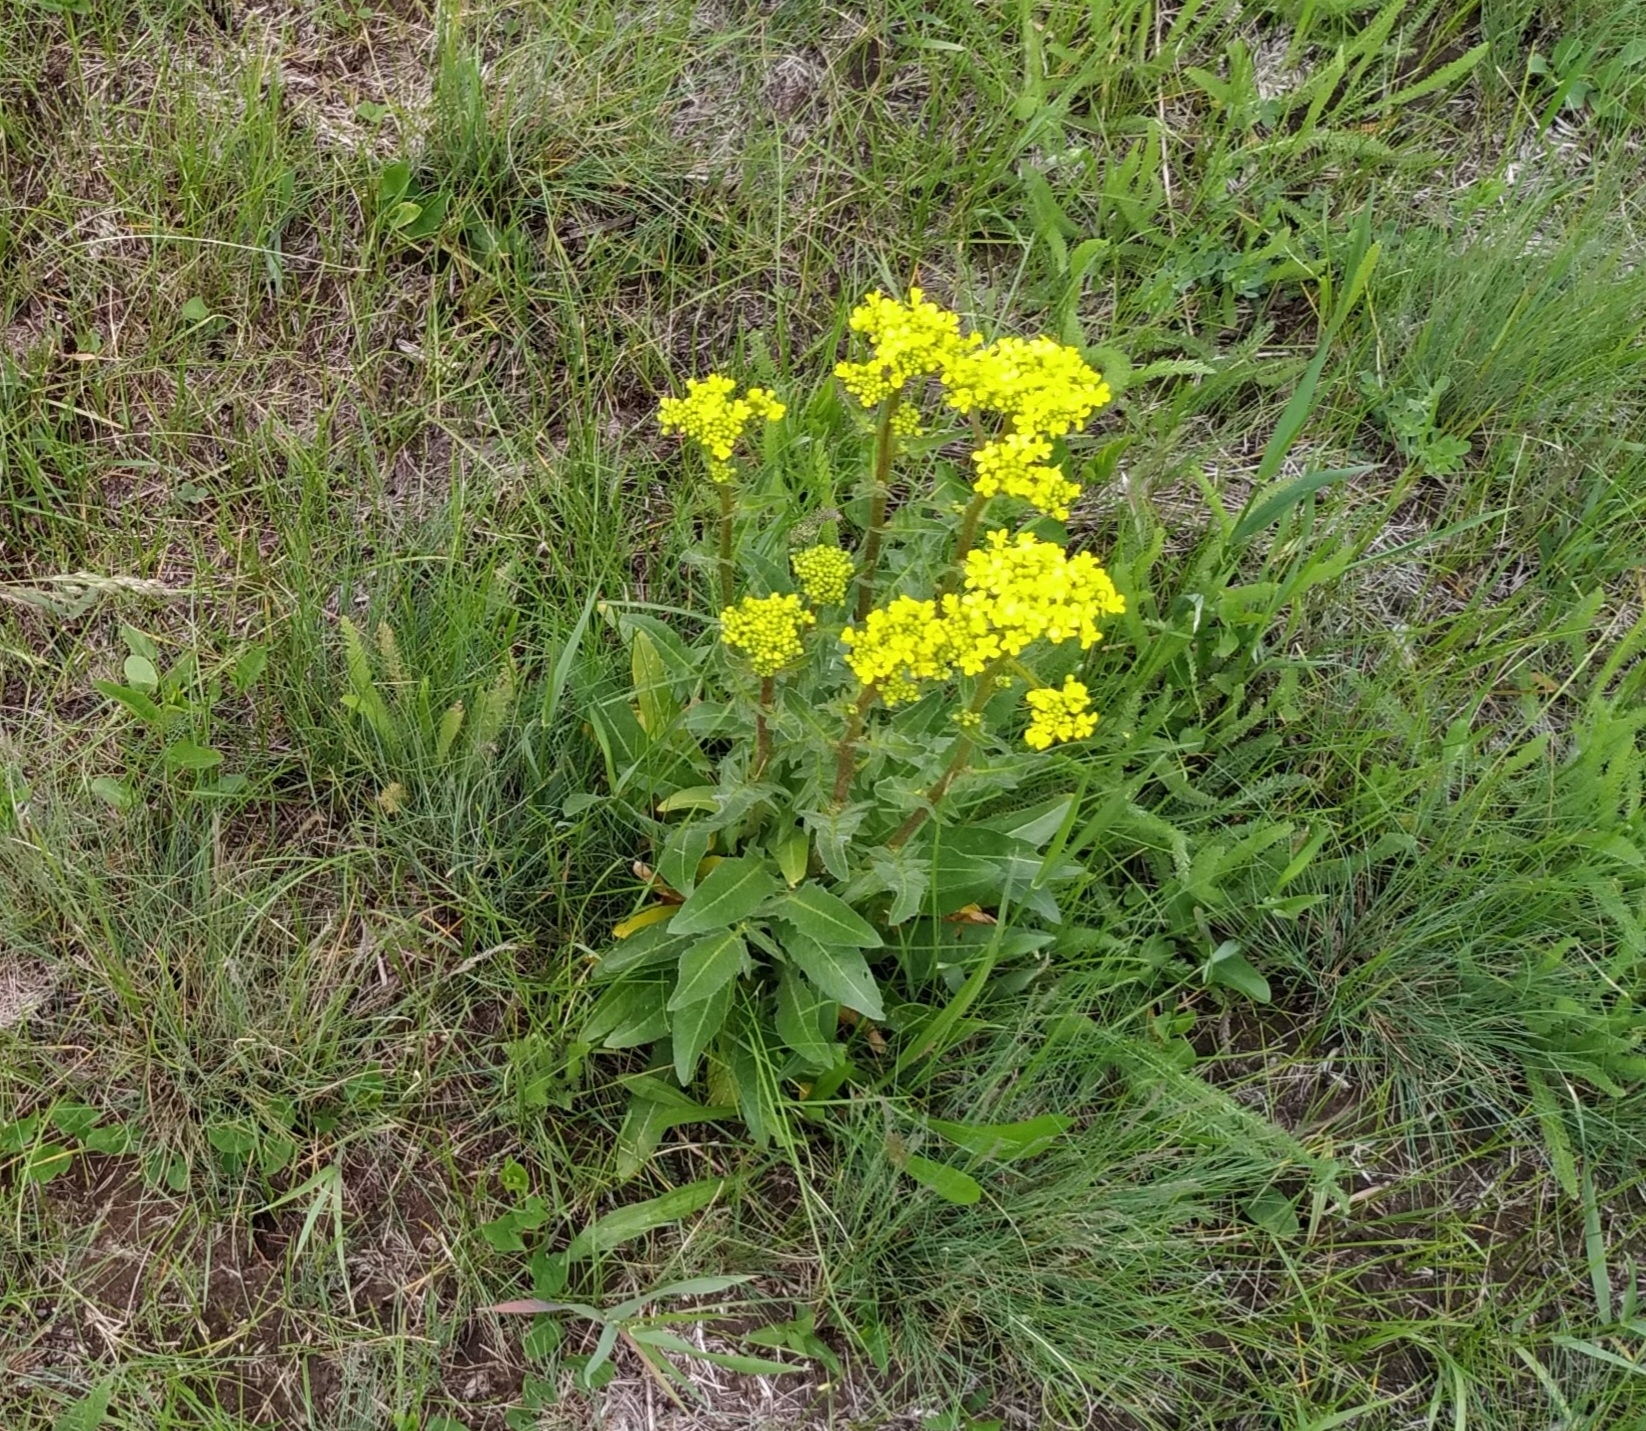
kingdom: Plantae
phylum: Tracheophyta
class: Magnoliopsida
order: Brassicales
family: Brassicaceae
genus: Bunias
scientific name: Bunias orientalis
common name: Warty-cabbage
